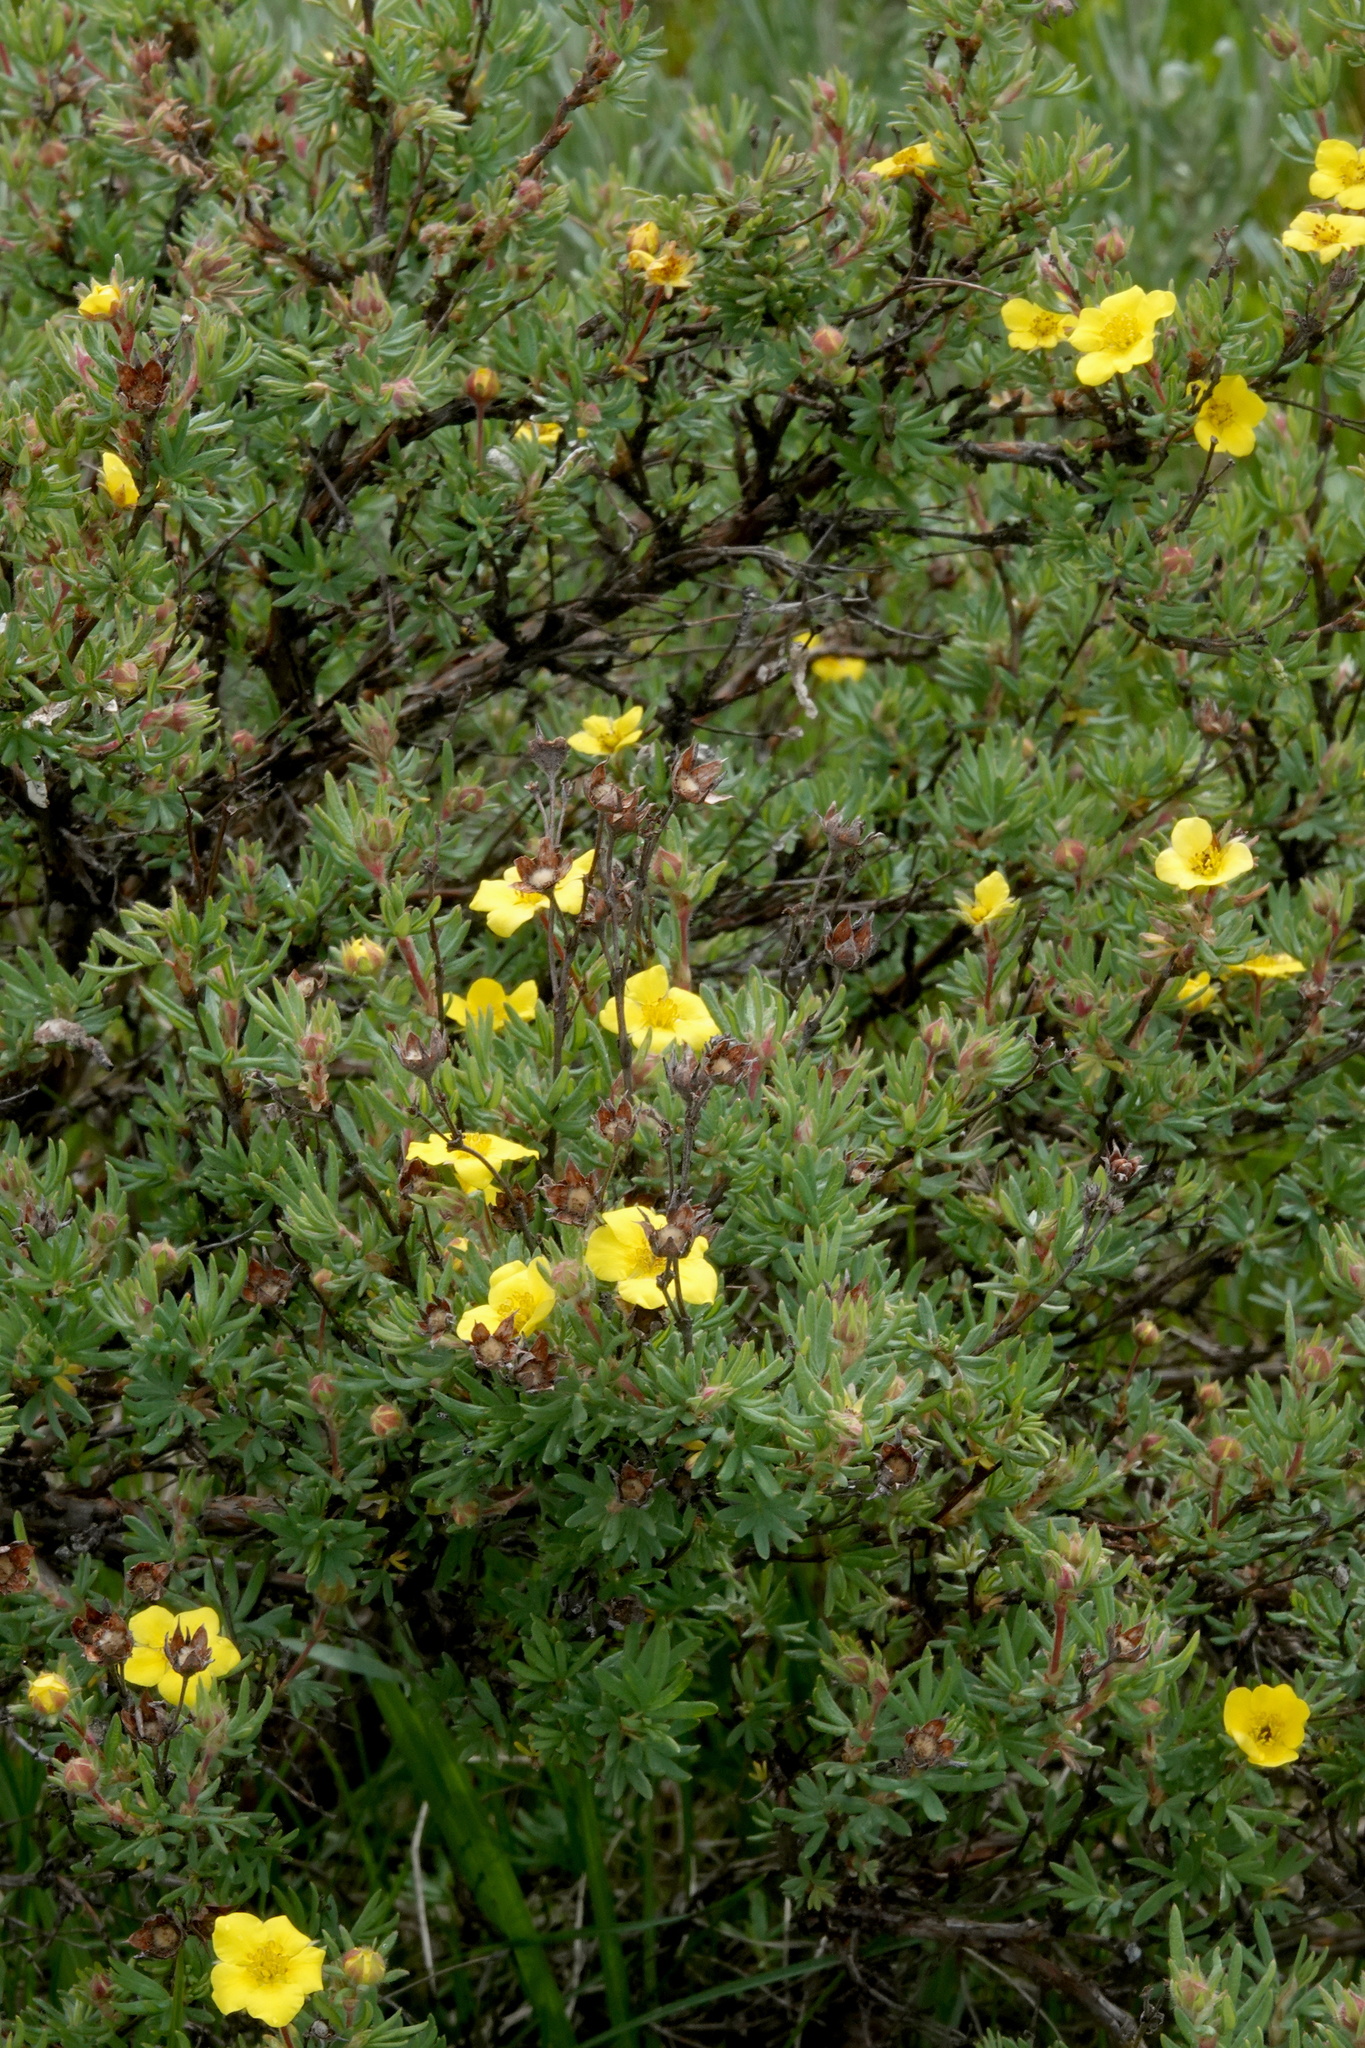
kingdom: Plantae
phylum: Tracheophyta
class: Magnoliopsida
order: Rosales
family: Rosaceae
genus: Dasiphora
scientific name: Dasiphora fruticosa
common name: Shrubby cinquefoil
